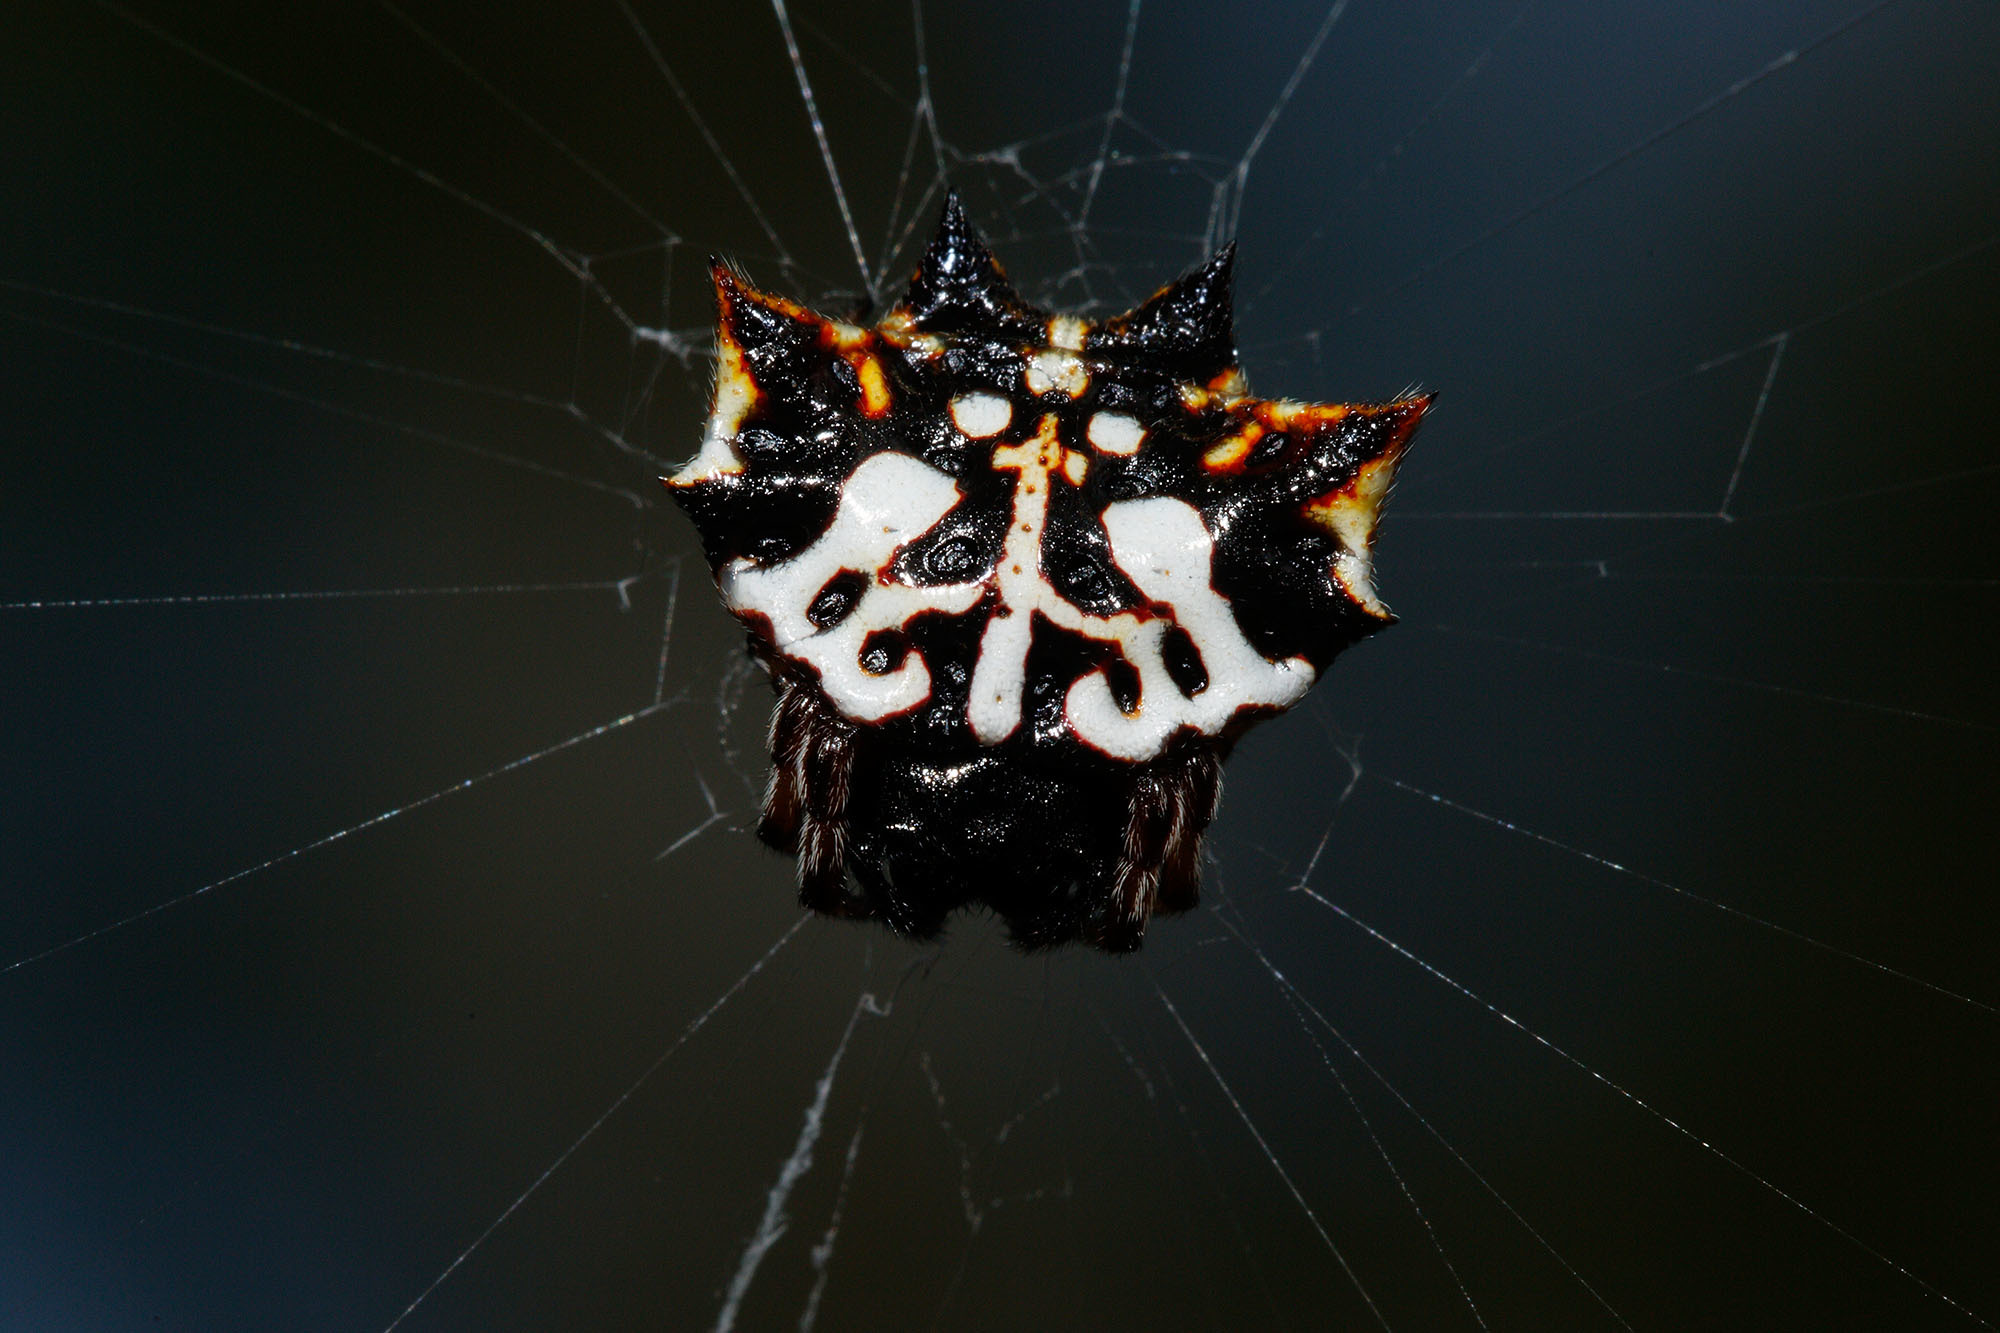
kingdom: Animalia
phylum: Arthropoda
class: Arachnida
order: Araneae
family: Araneidae
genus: Gasteracantha
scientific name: Gasteracantha sacerdotalis
